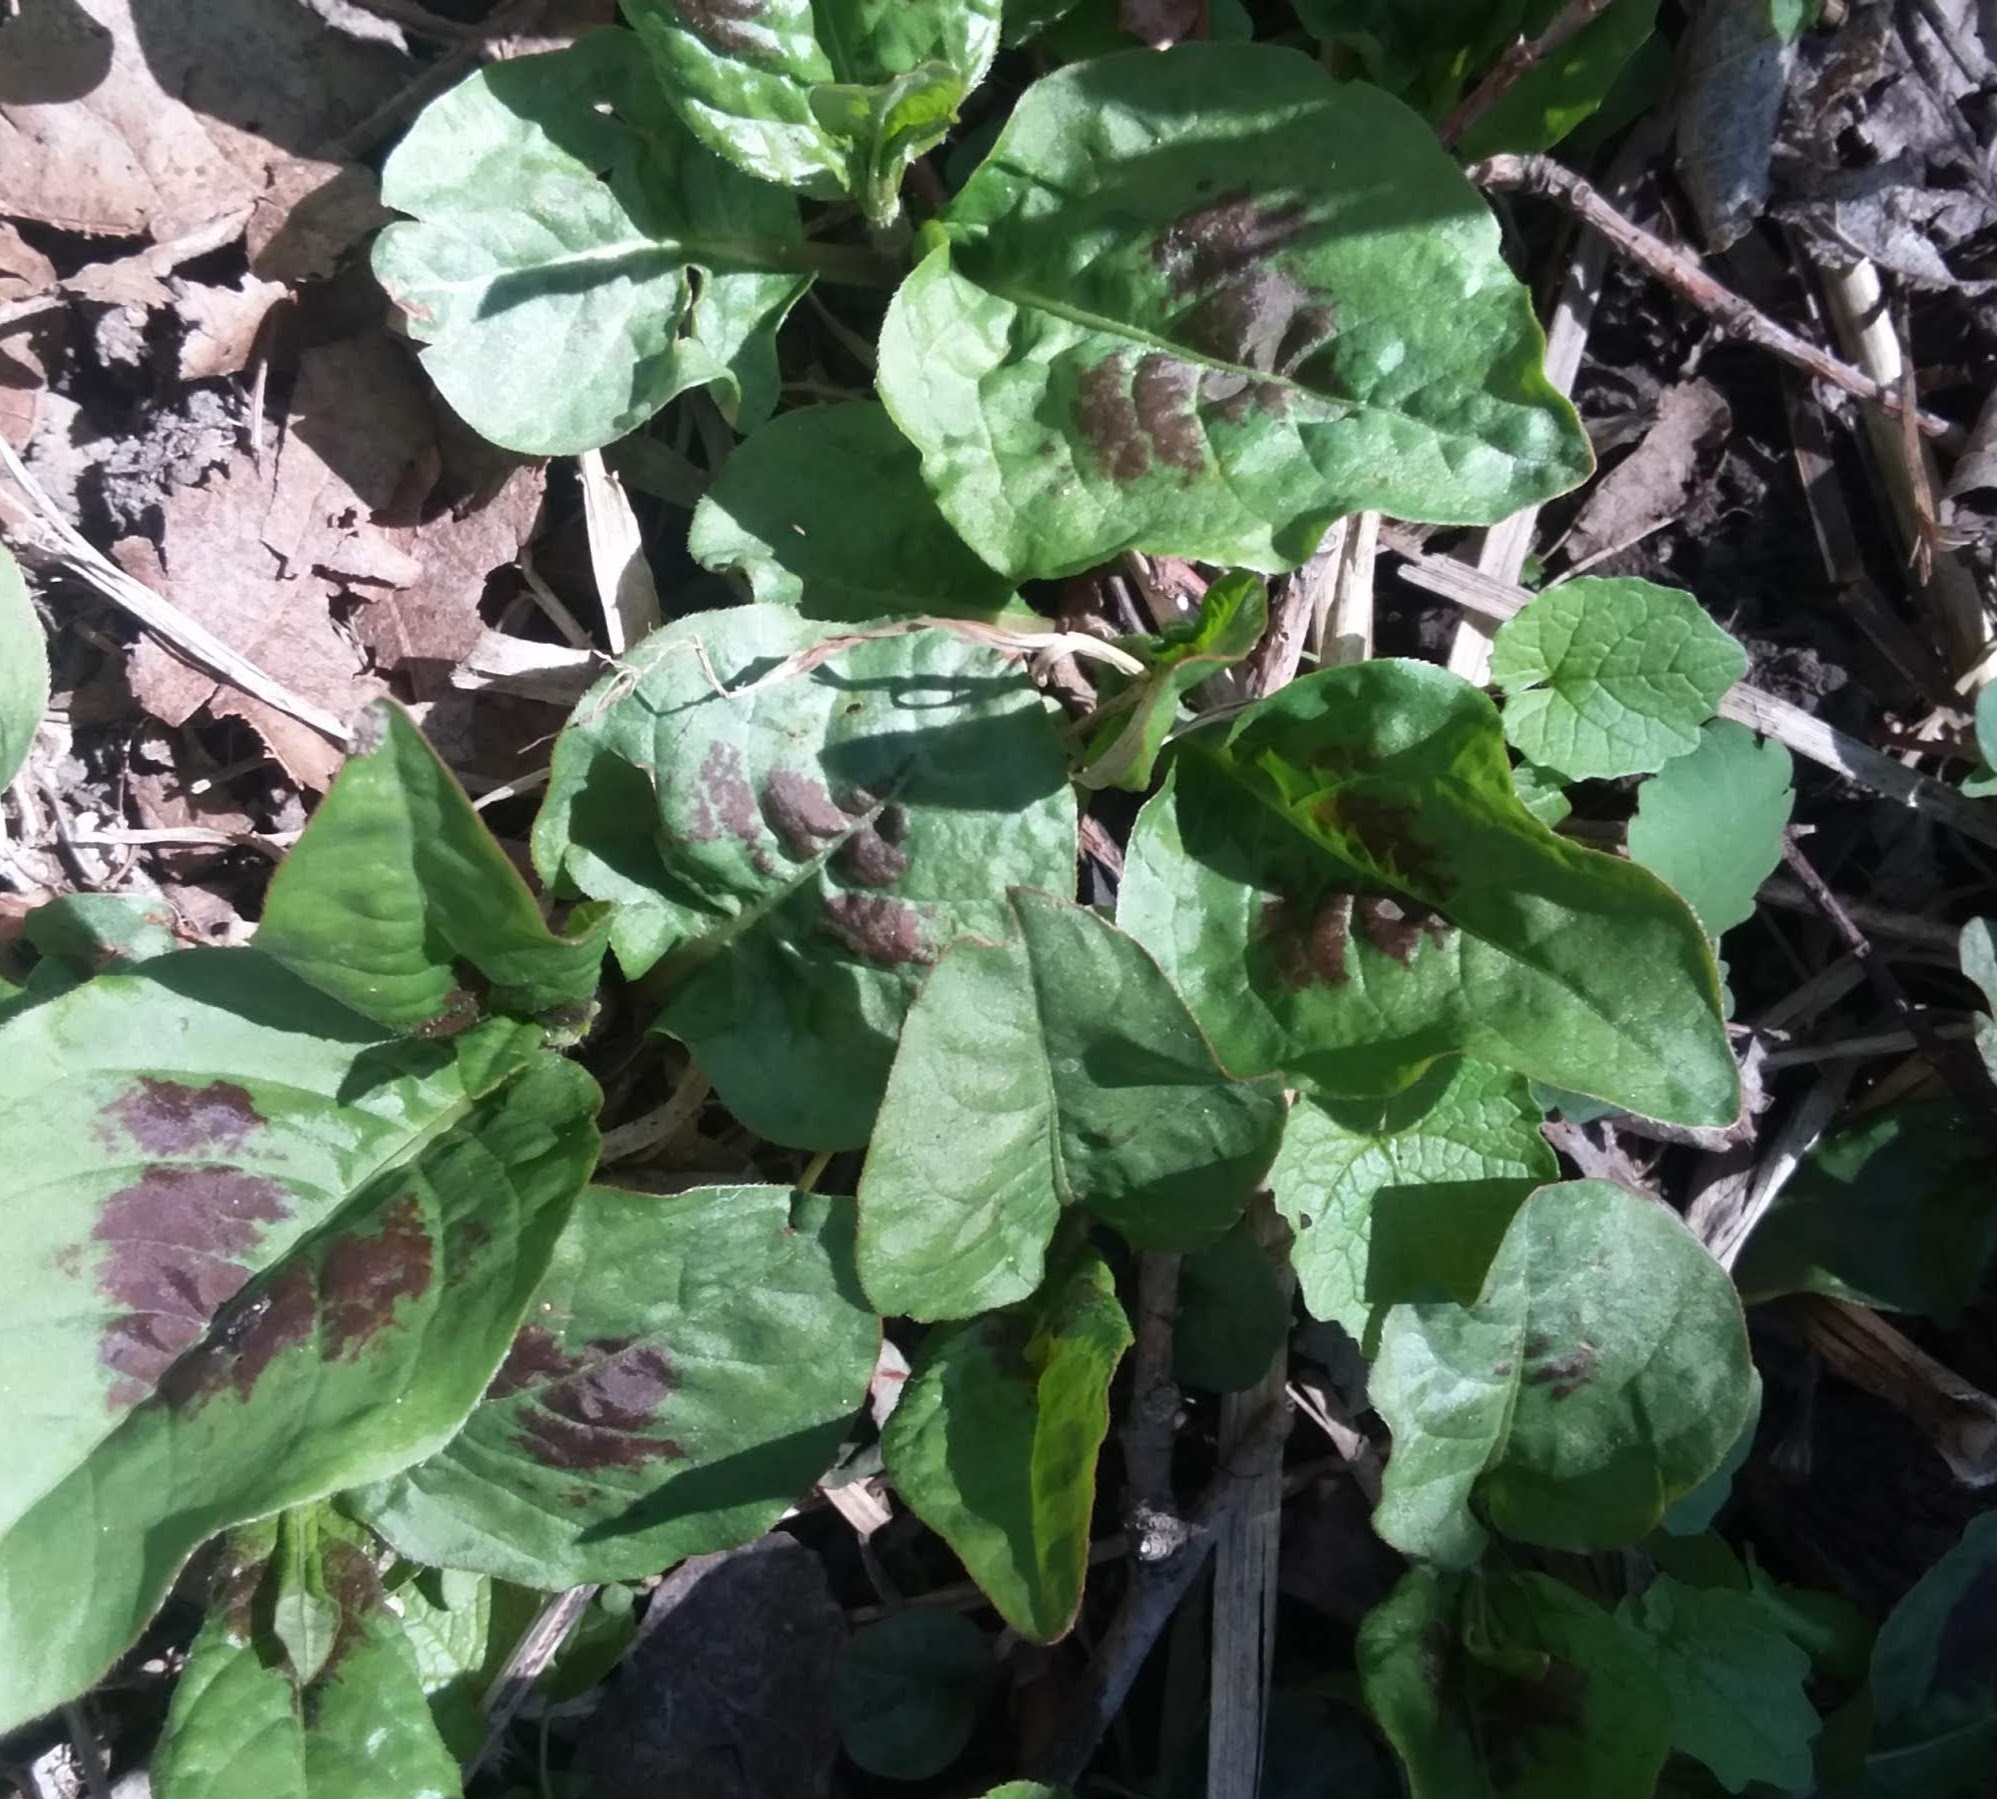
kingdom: Plantae
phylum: Tracheophyta
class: Magnoliopsida
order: Caryophyllales
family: Polygonaceae
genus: Persicaria
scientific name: Persicaria virginiana
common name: Jumpseed
